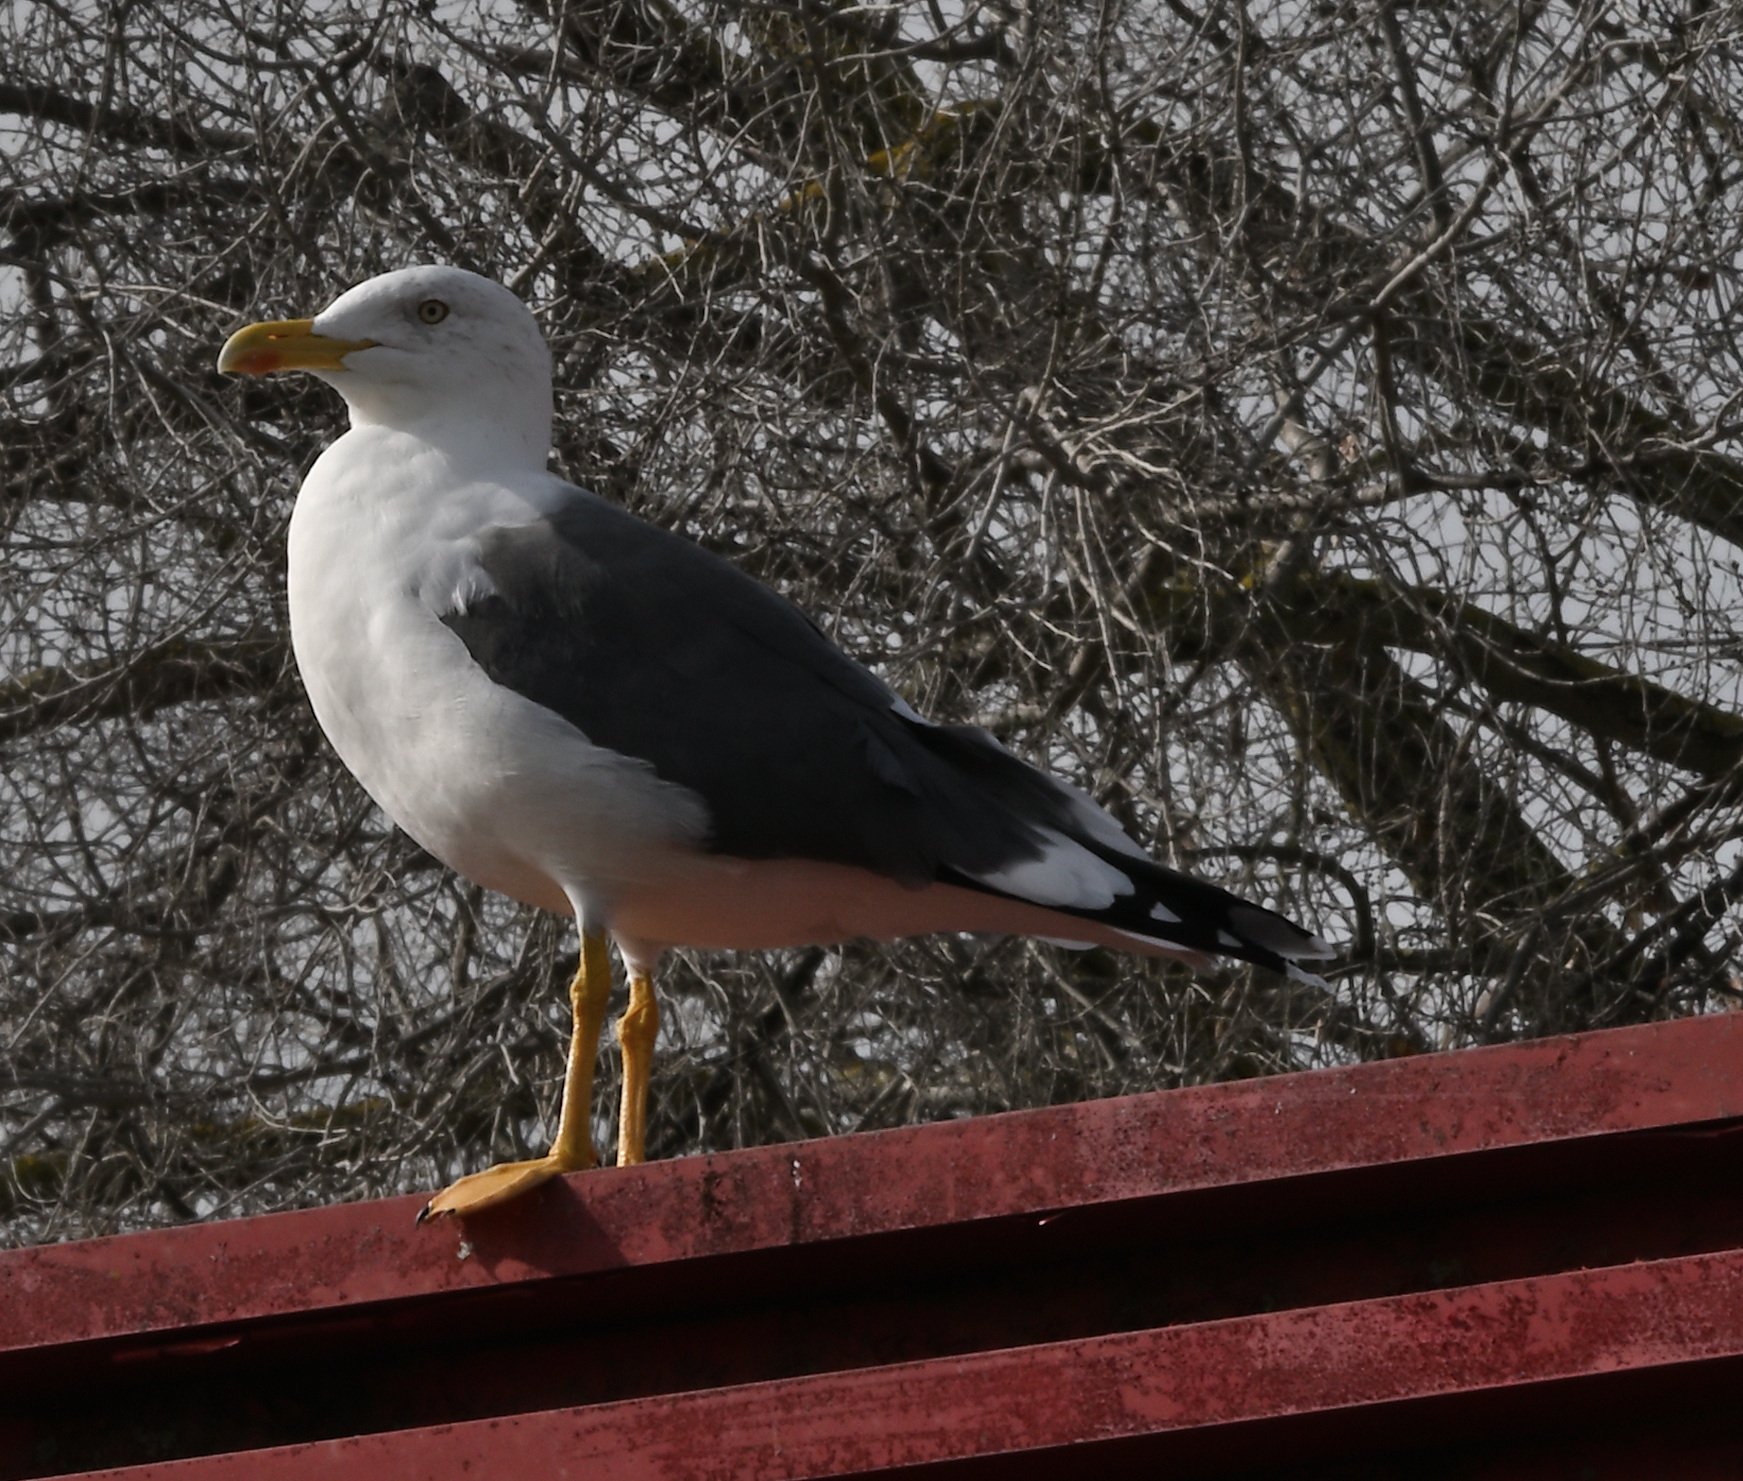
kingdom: Animalia
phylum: Chordata
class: Aves
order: Charadriiformes
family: Laridae
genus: Larus
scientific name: Larus fuscus
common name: Lesser black-backed gull
